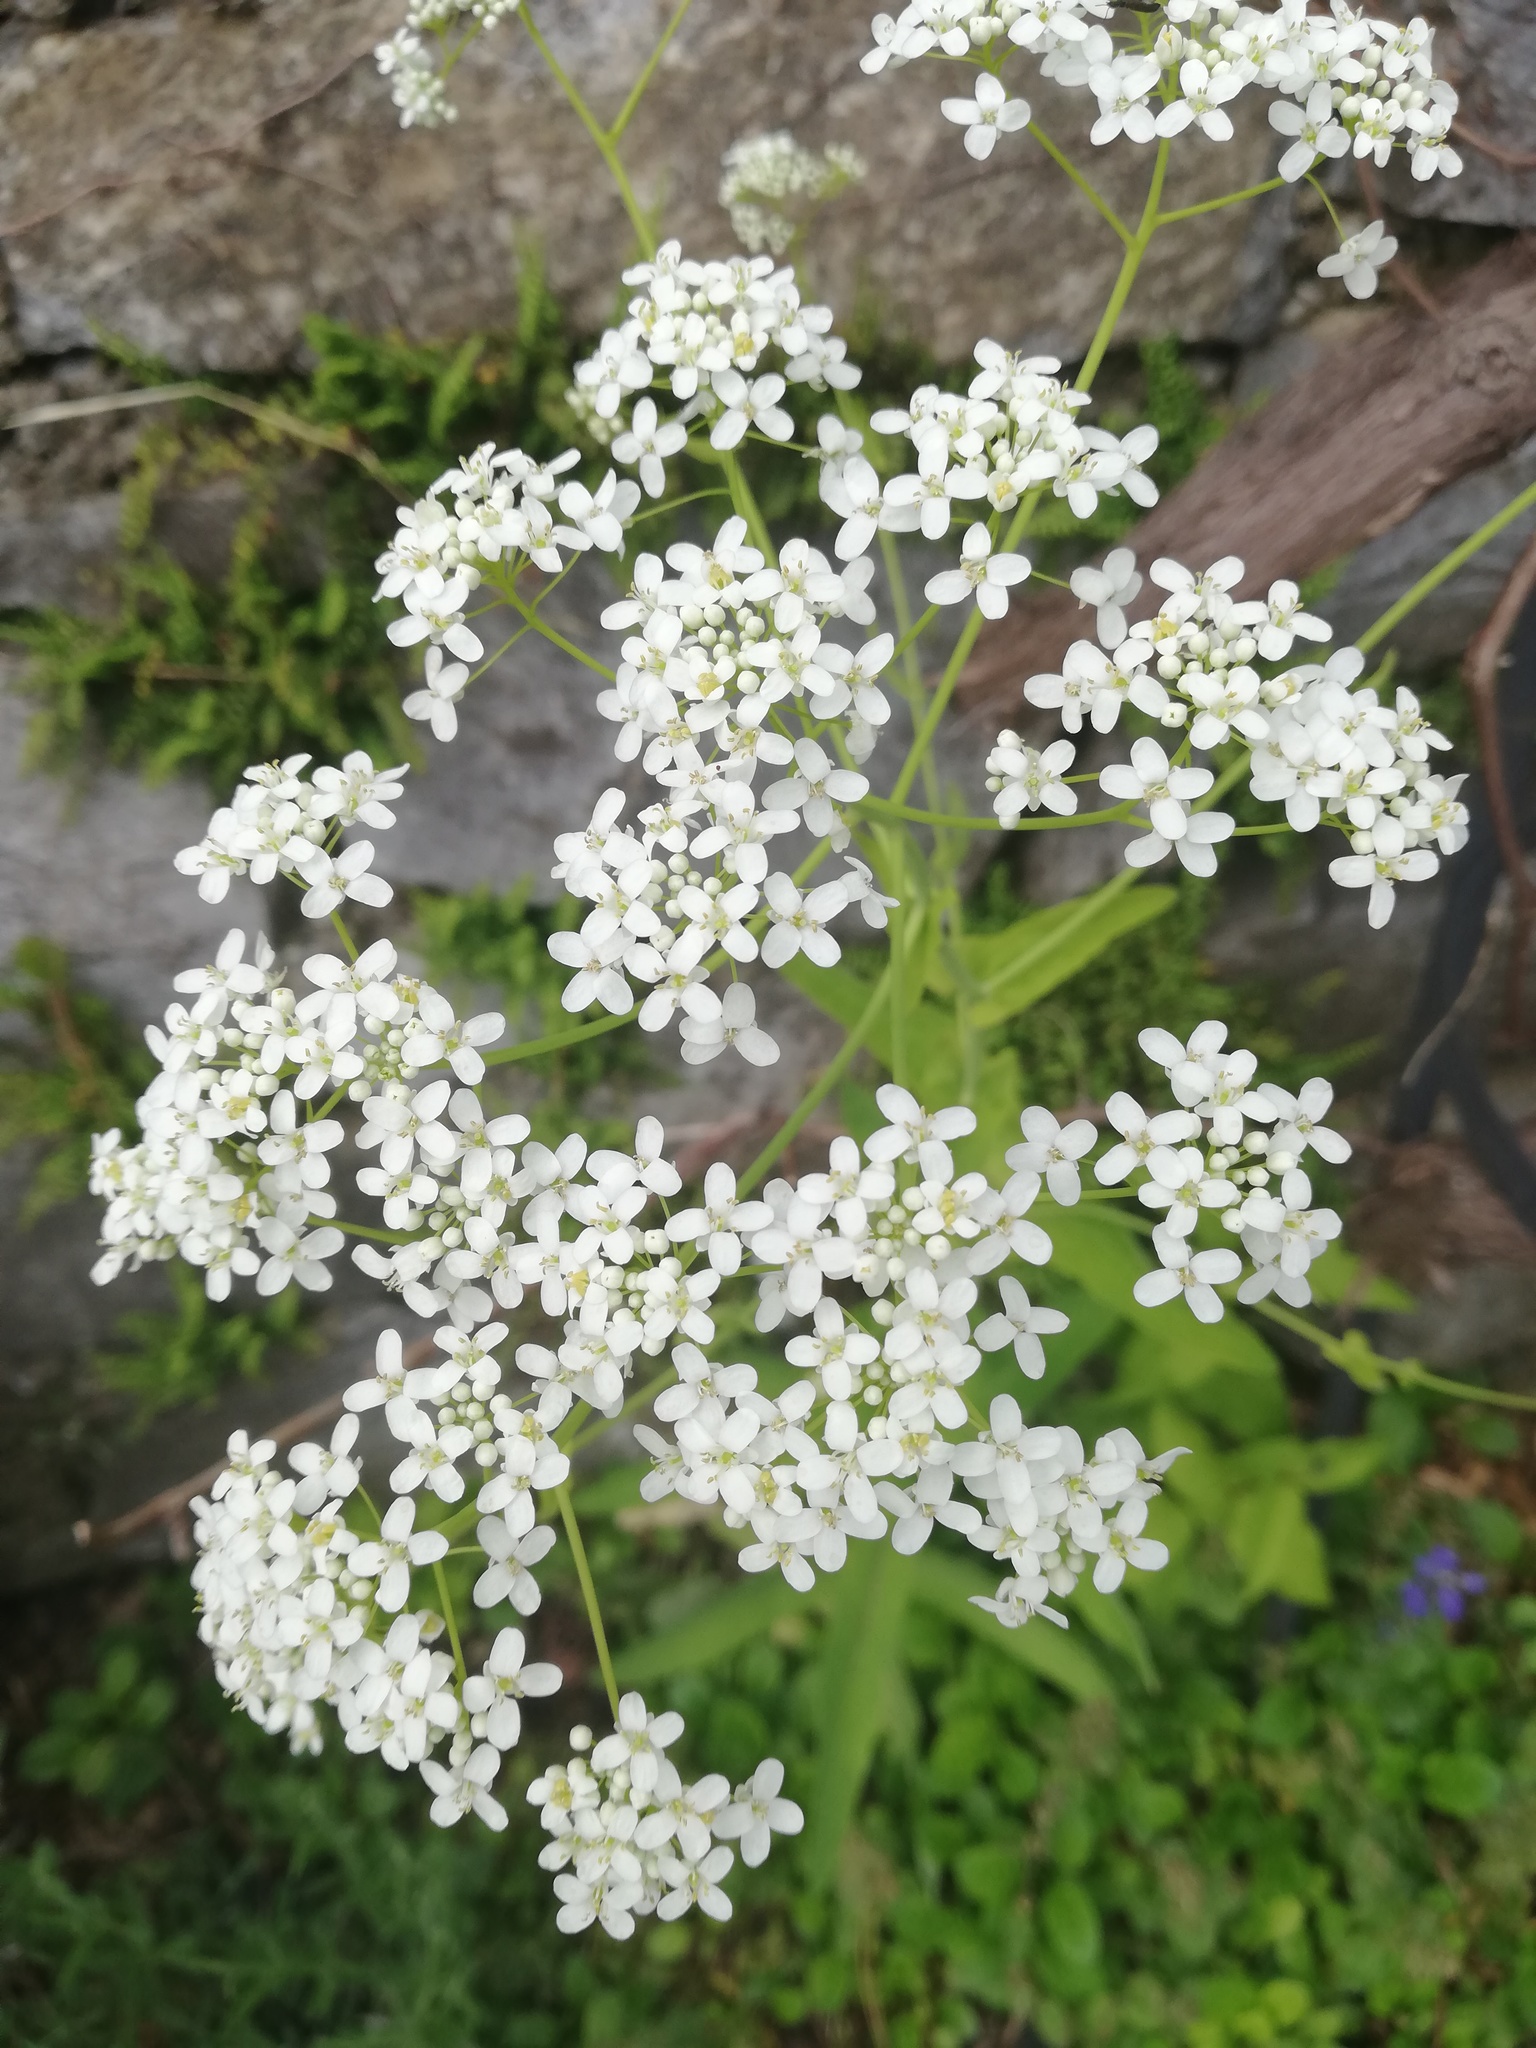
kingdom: Plantae
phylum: Tracheophyta
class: Magnoliopsida
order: Brassicales
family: Brassicaceae
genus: Peltaria
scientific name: Peltaria alliacea
